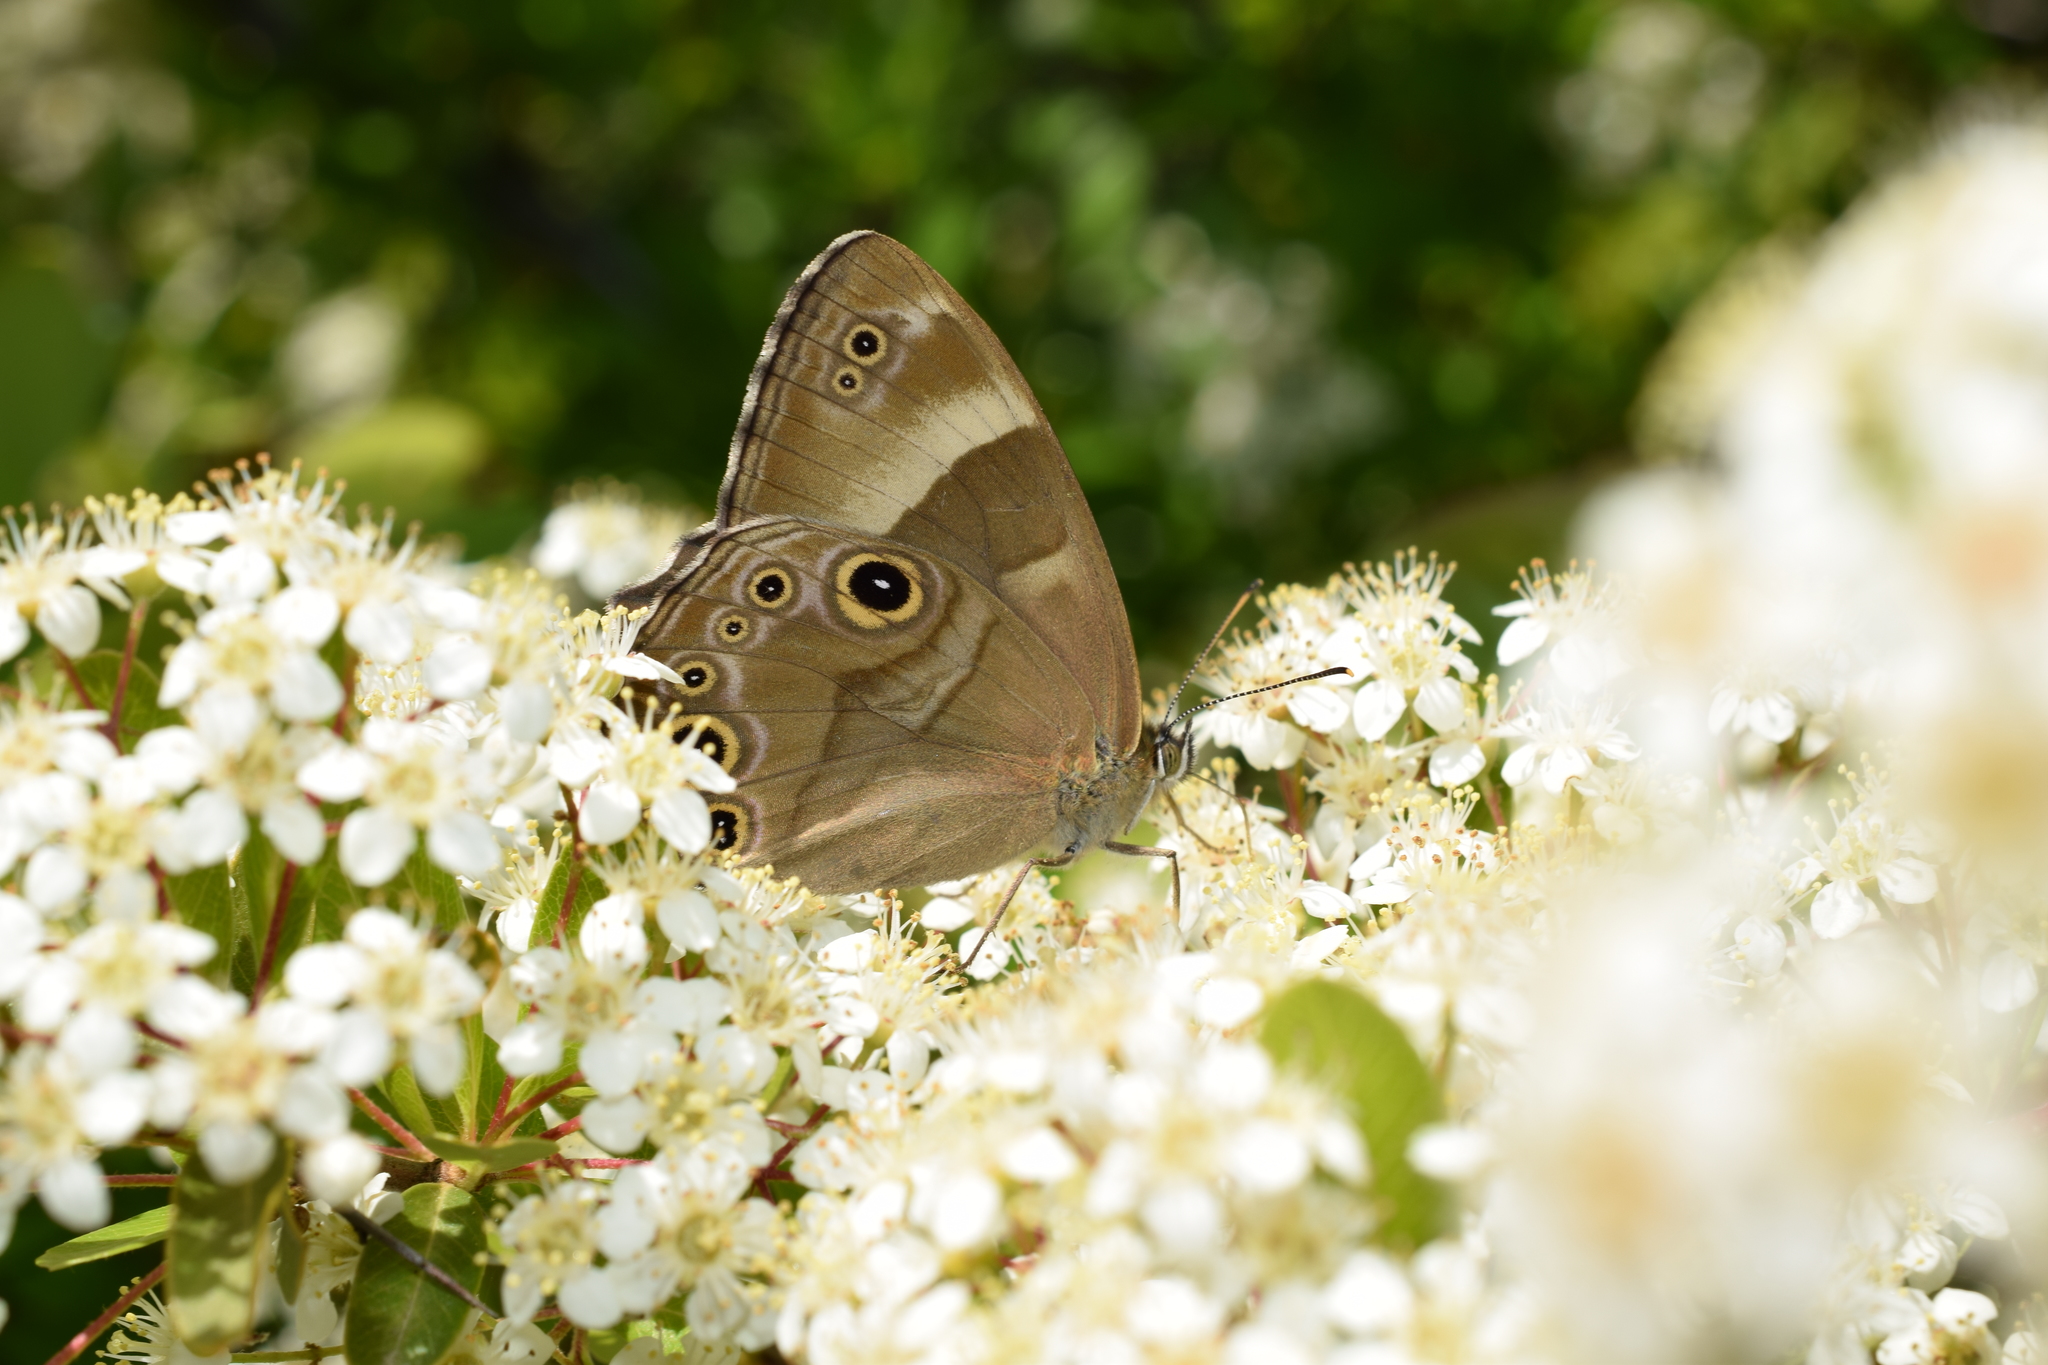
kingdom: Animalia
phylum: Arthropoda
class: Insecta
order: Lepidoptera
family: Nymphalidae
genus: Lethe
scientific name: Lethe sicelis
